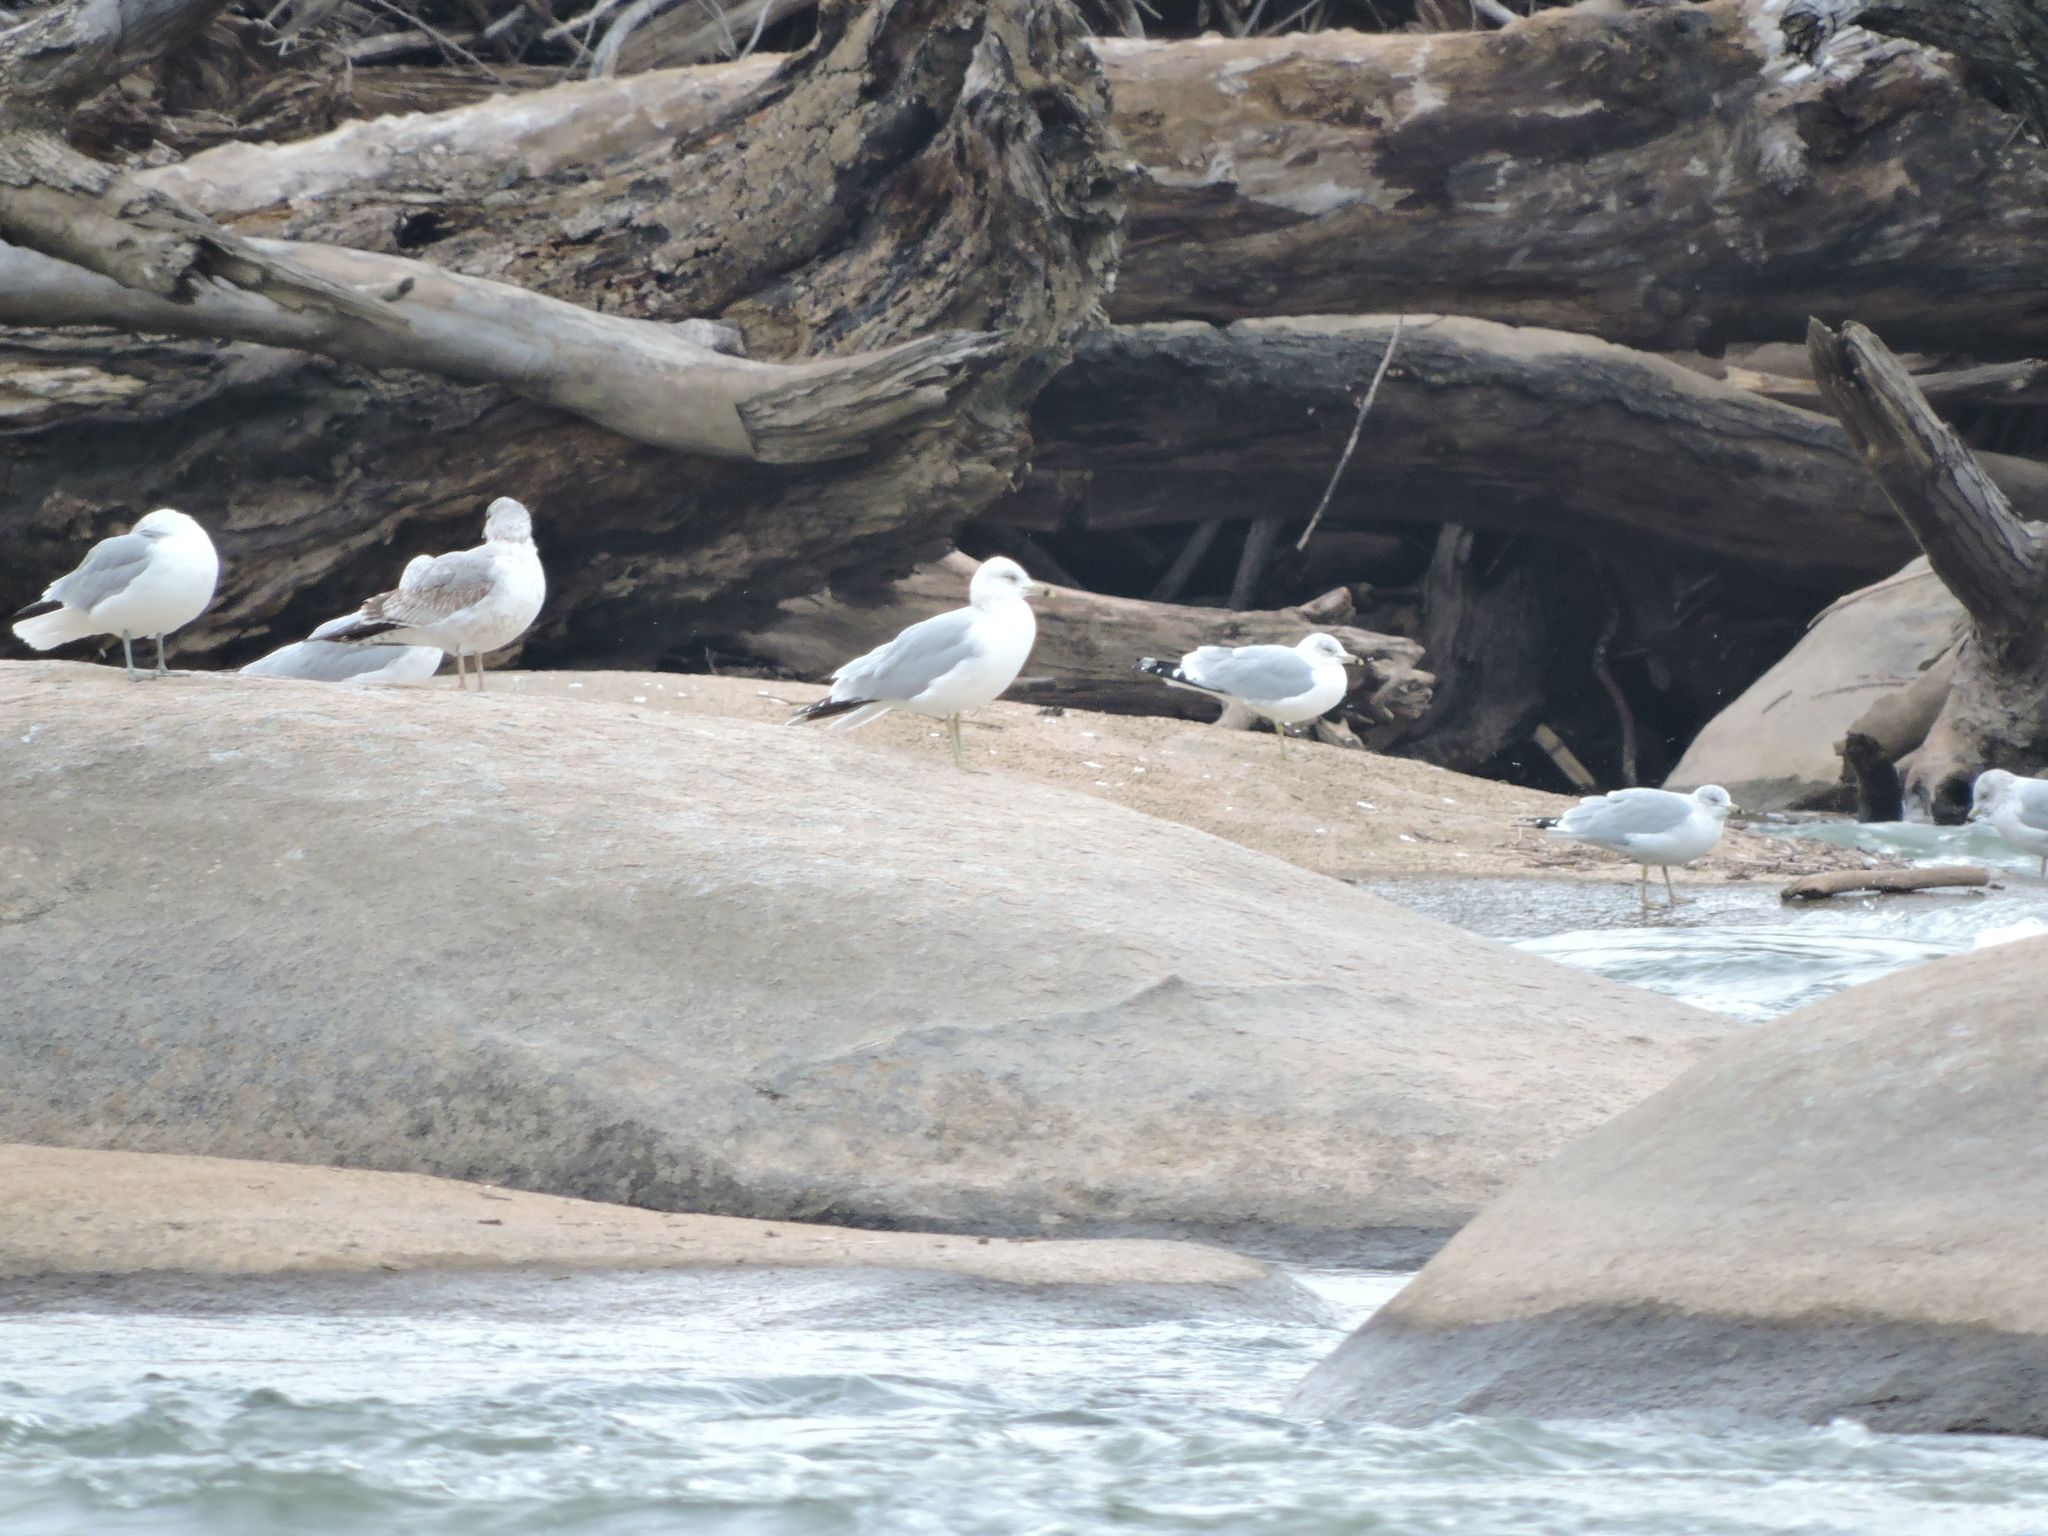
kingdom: Animalia
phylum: Chordata
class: Aves
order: Charadriiformes
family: Laridae
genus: Larus
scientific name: Larus delawarensis
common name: Ring-billed gull
